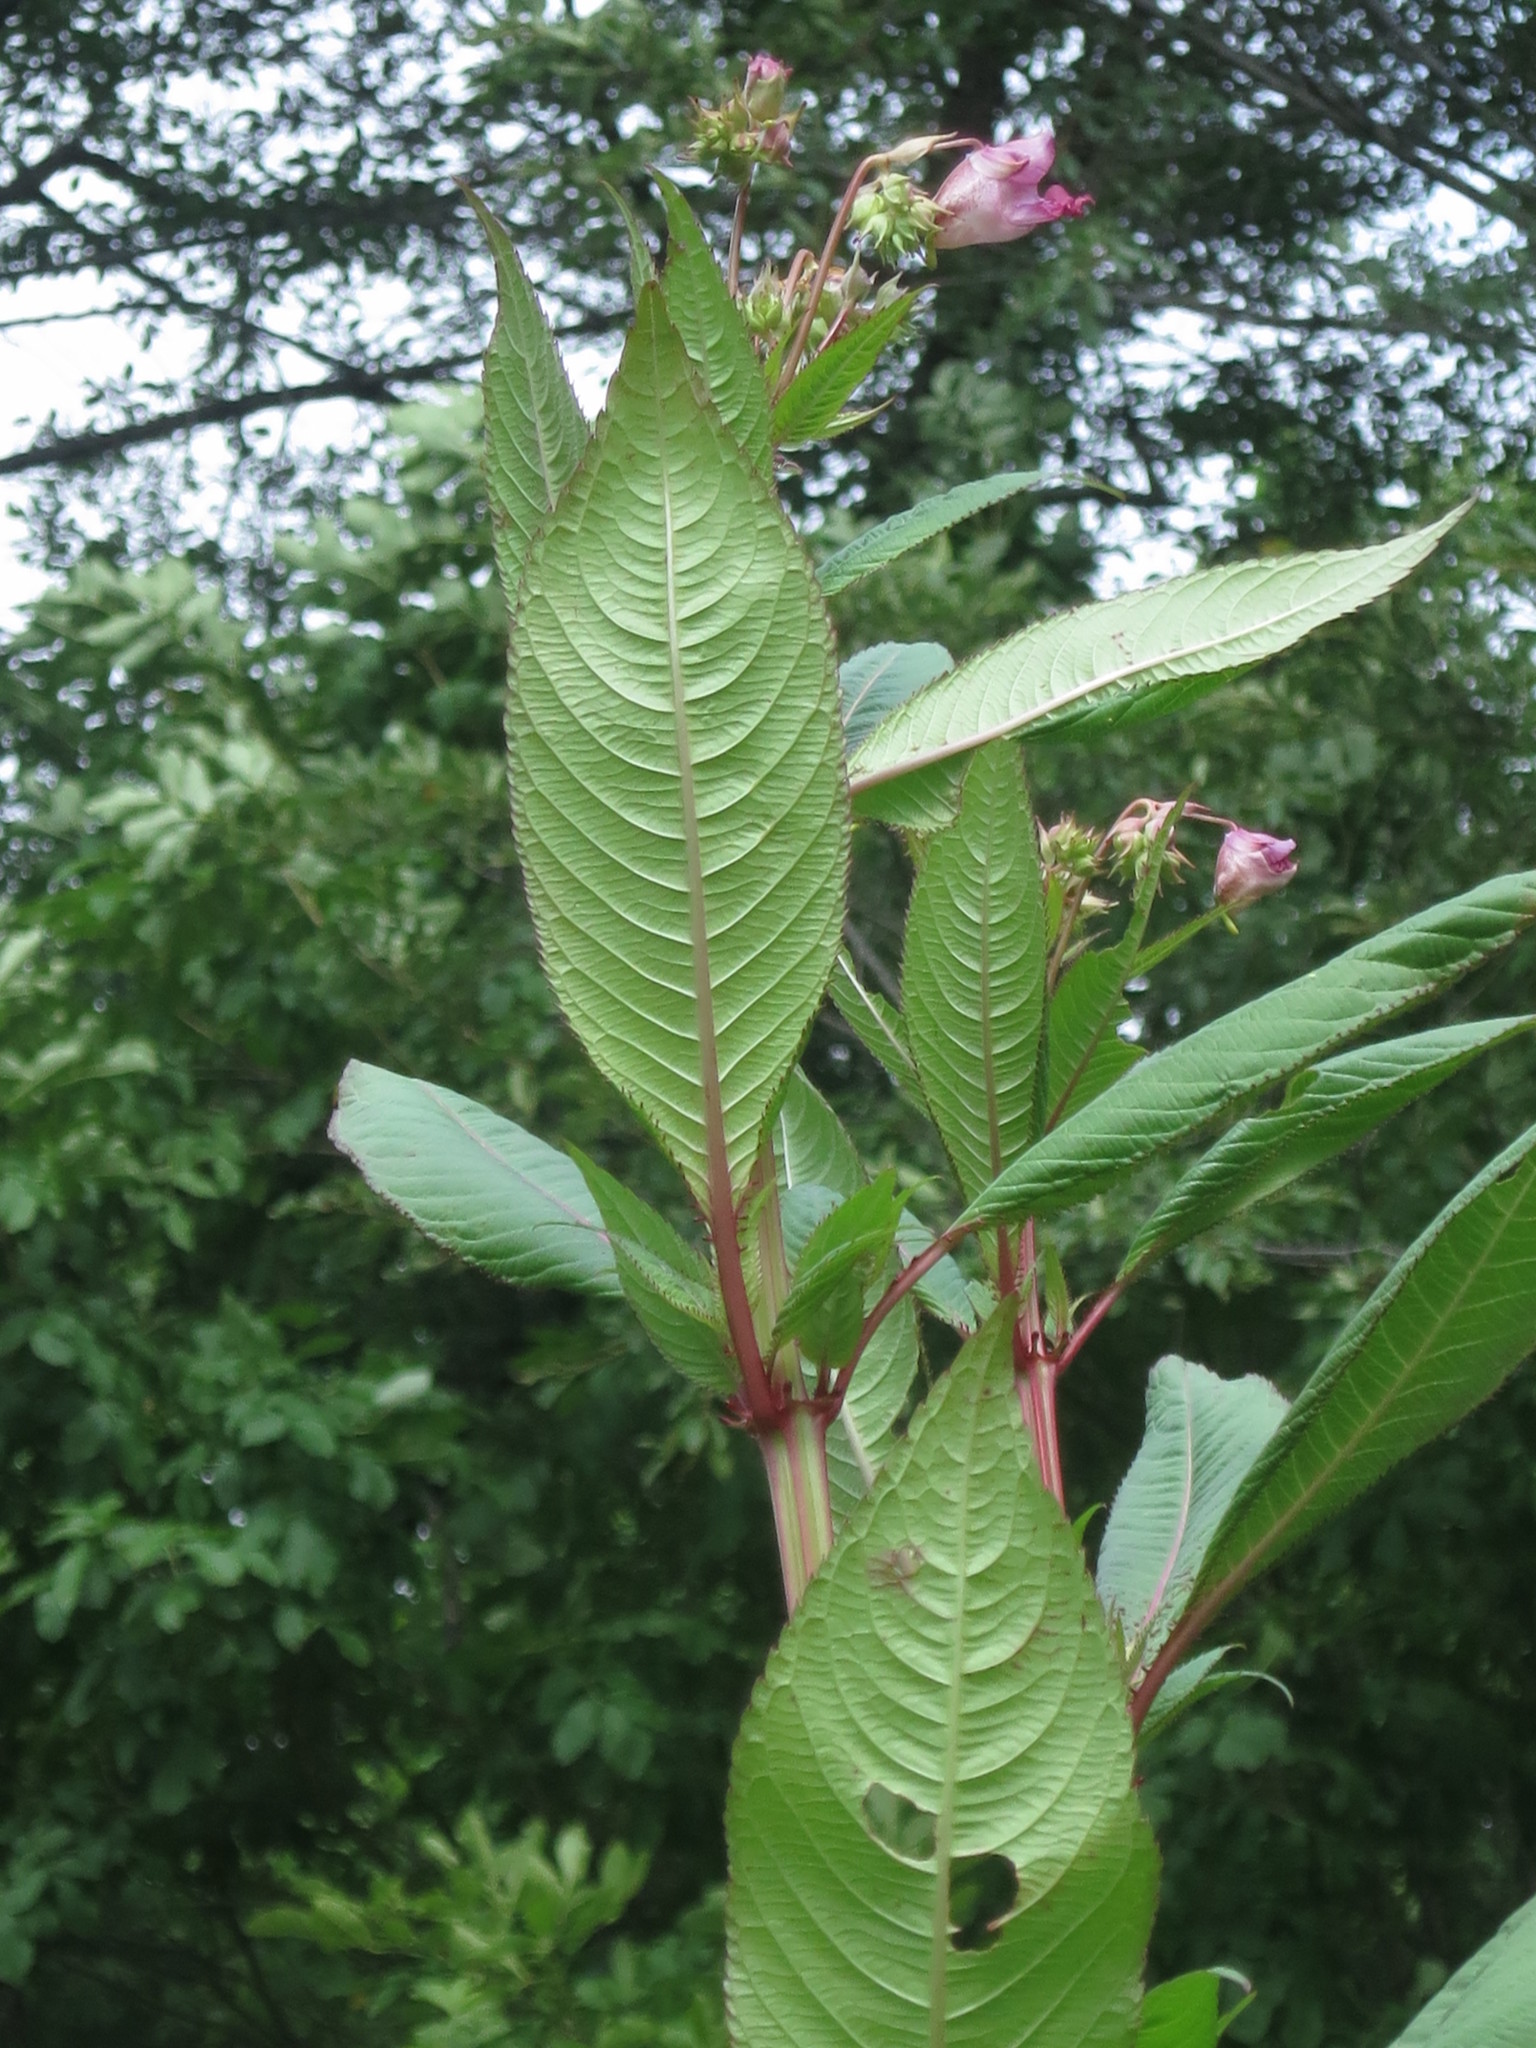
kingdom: Plantae
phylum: Tracheophyta
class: Magnoliopsida
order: Ericales
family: Balsaminaceae
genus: Impatiens
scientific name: Impatiens glandulifera
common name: Himalayan balsam
